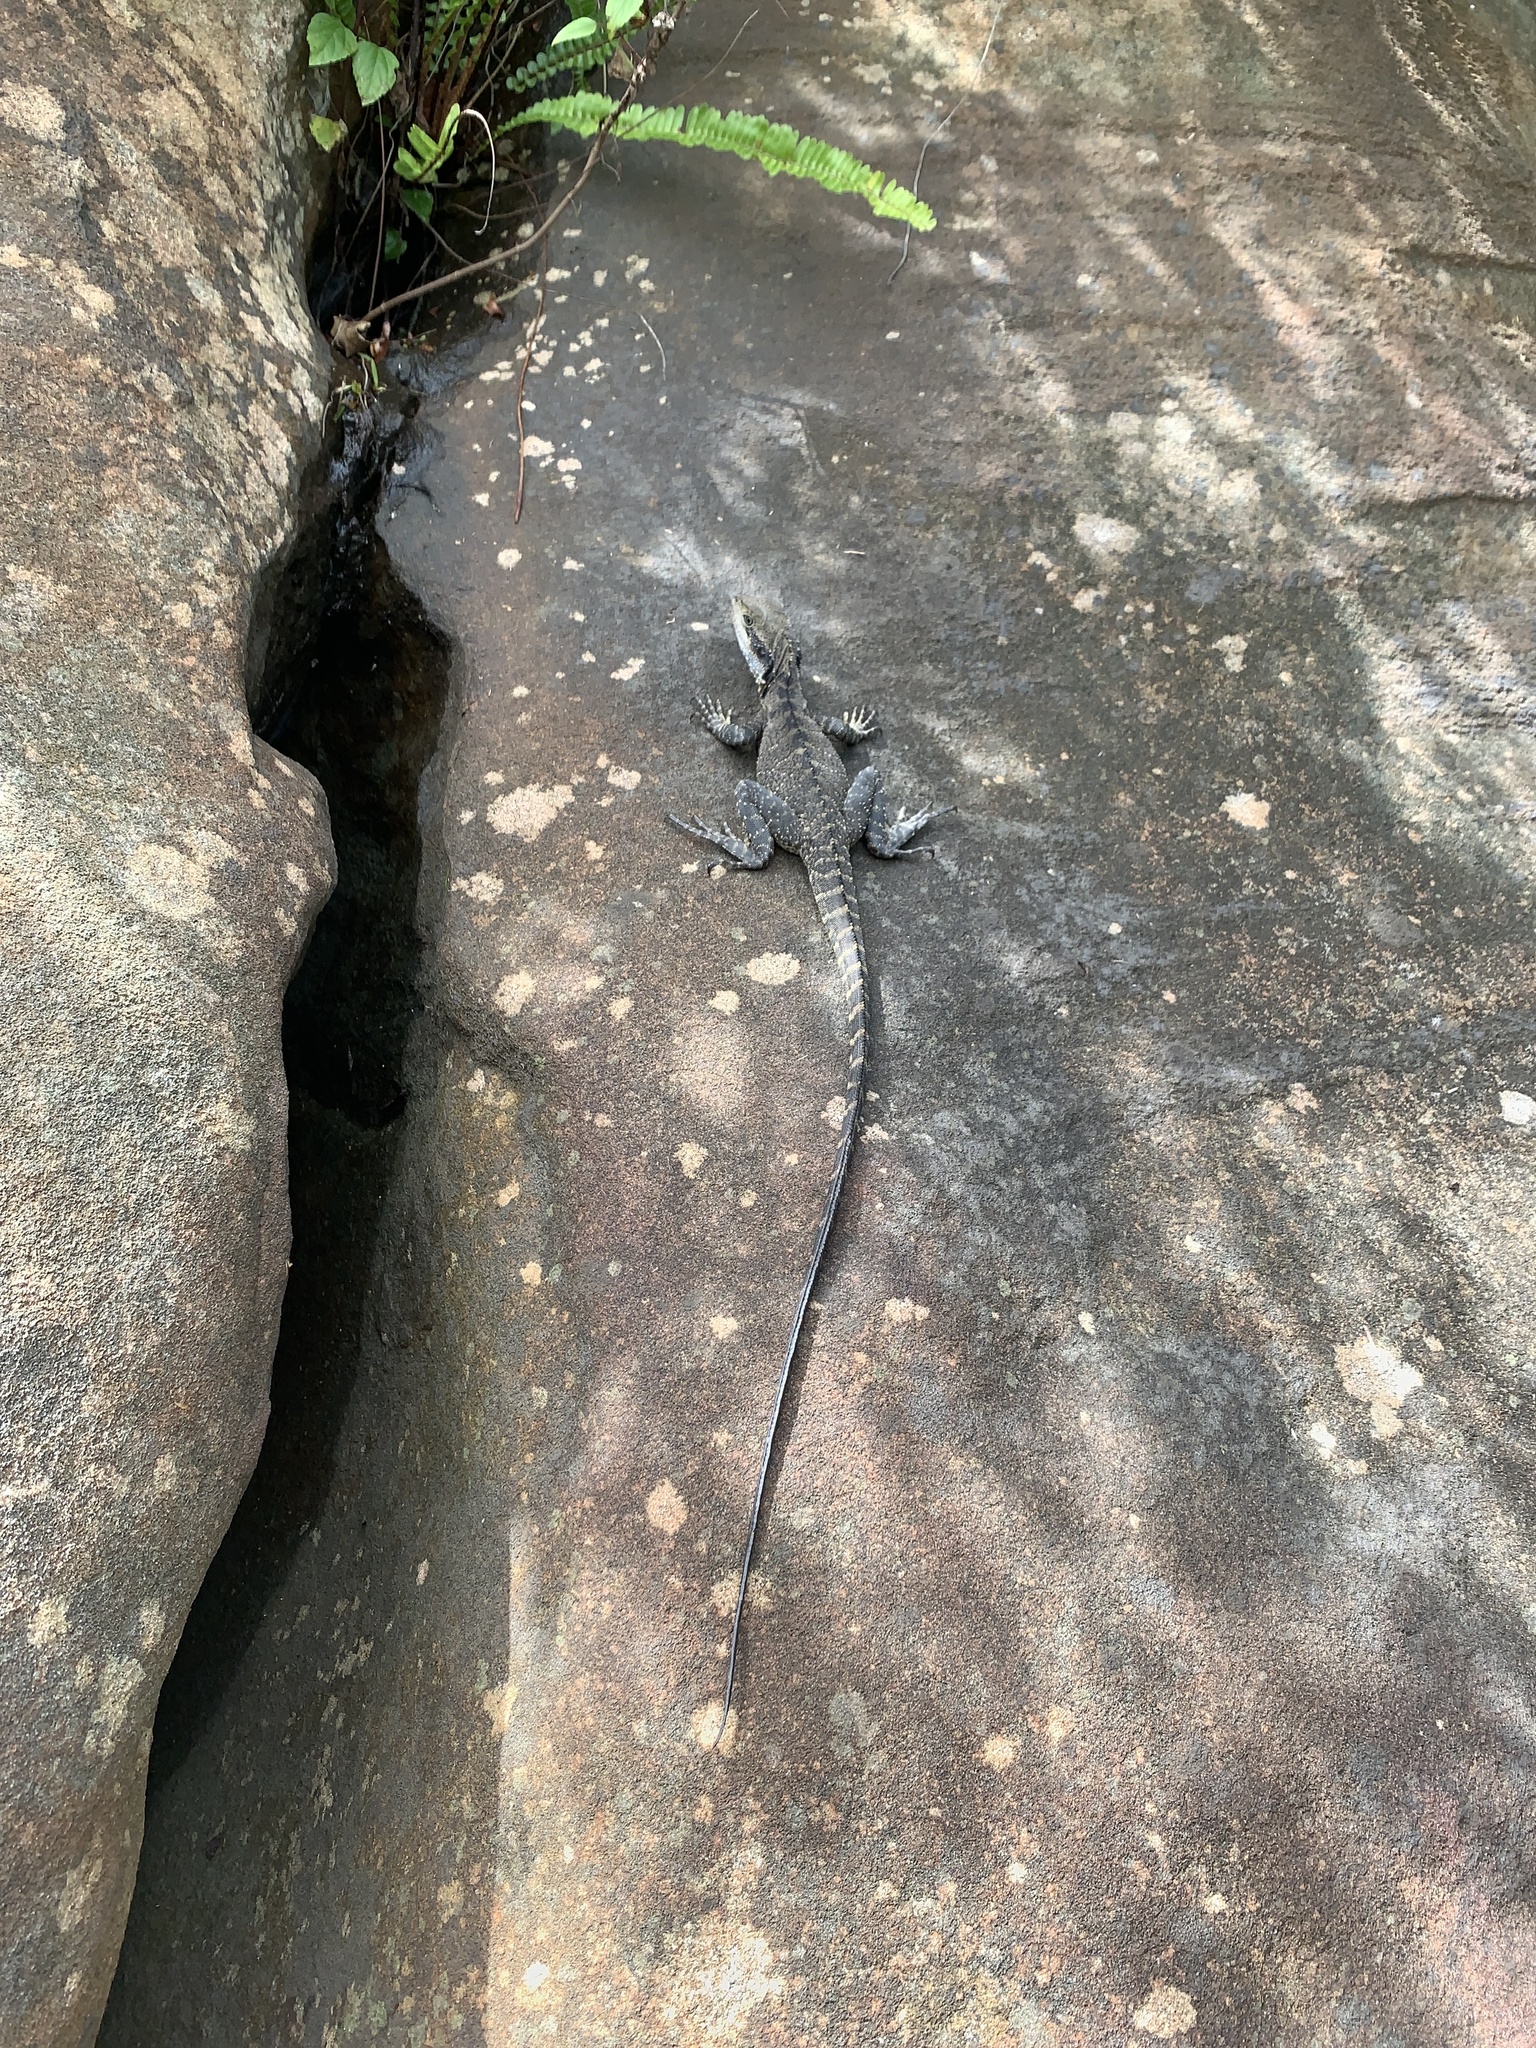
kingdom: Animalia
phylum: Chordata
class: Squamata
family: Agamidae
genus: Intellagama
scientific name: Intellagama lesueurii
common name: Eastern water dragon
